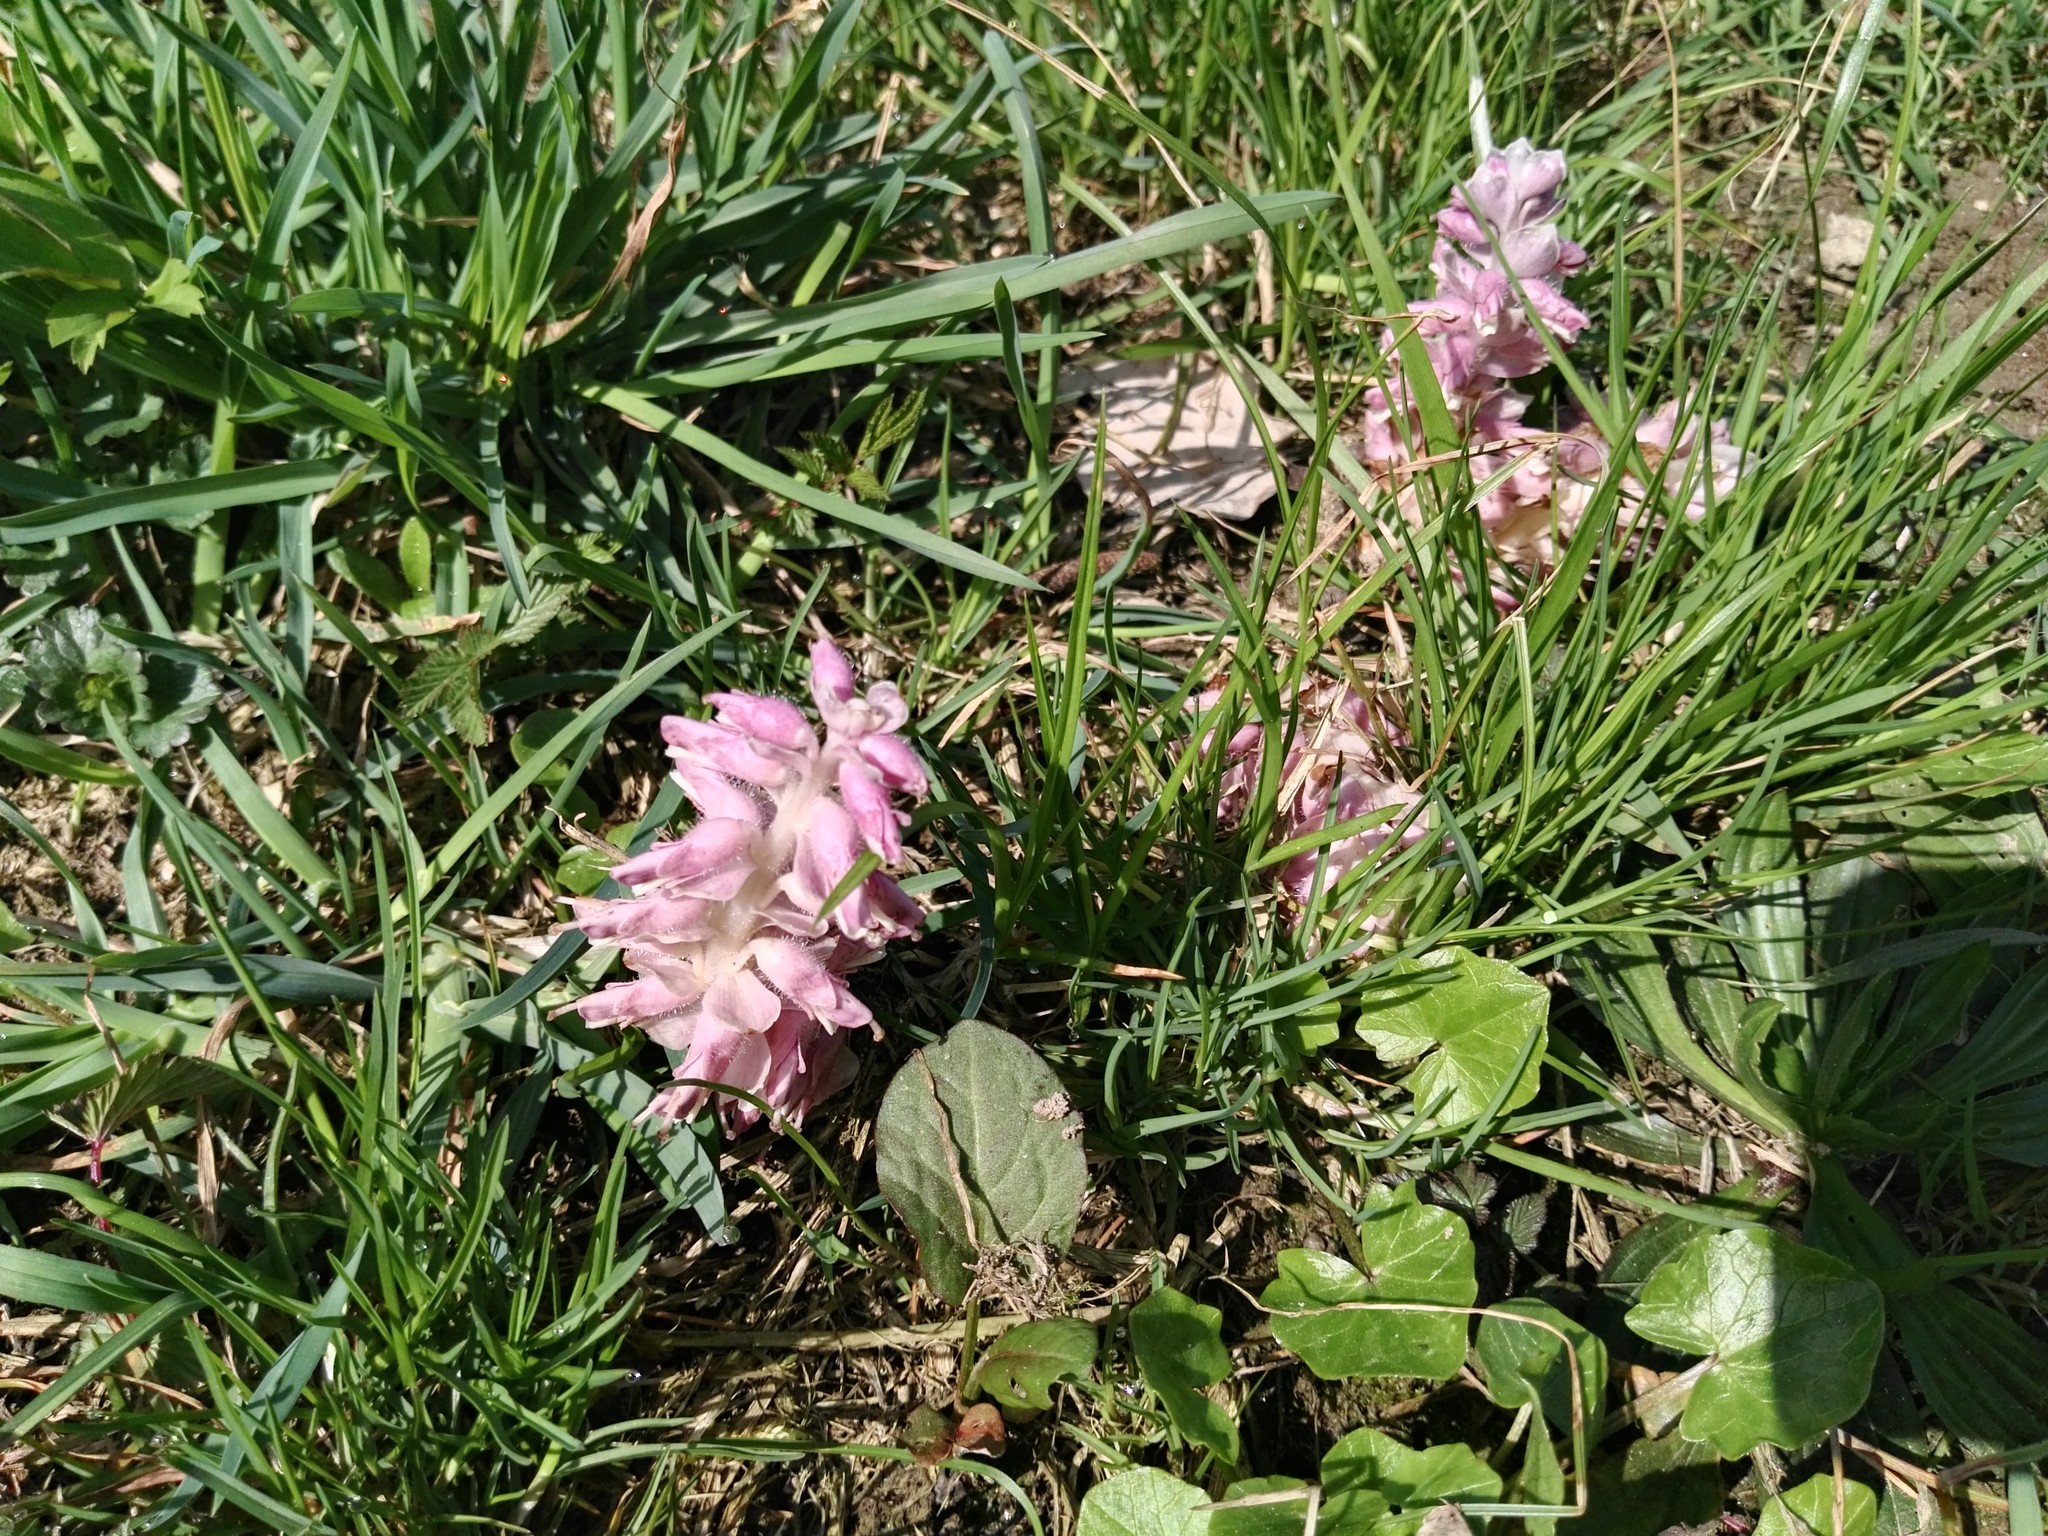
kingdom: Plantae
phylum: Tracheophyta
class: Magnoliopsida
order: Lamiales
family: Orobanchaceae
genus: Lathraea
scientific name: Lathraea squamaria
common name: Toothwort
